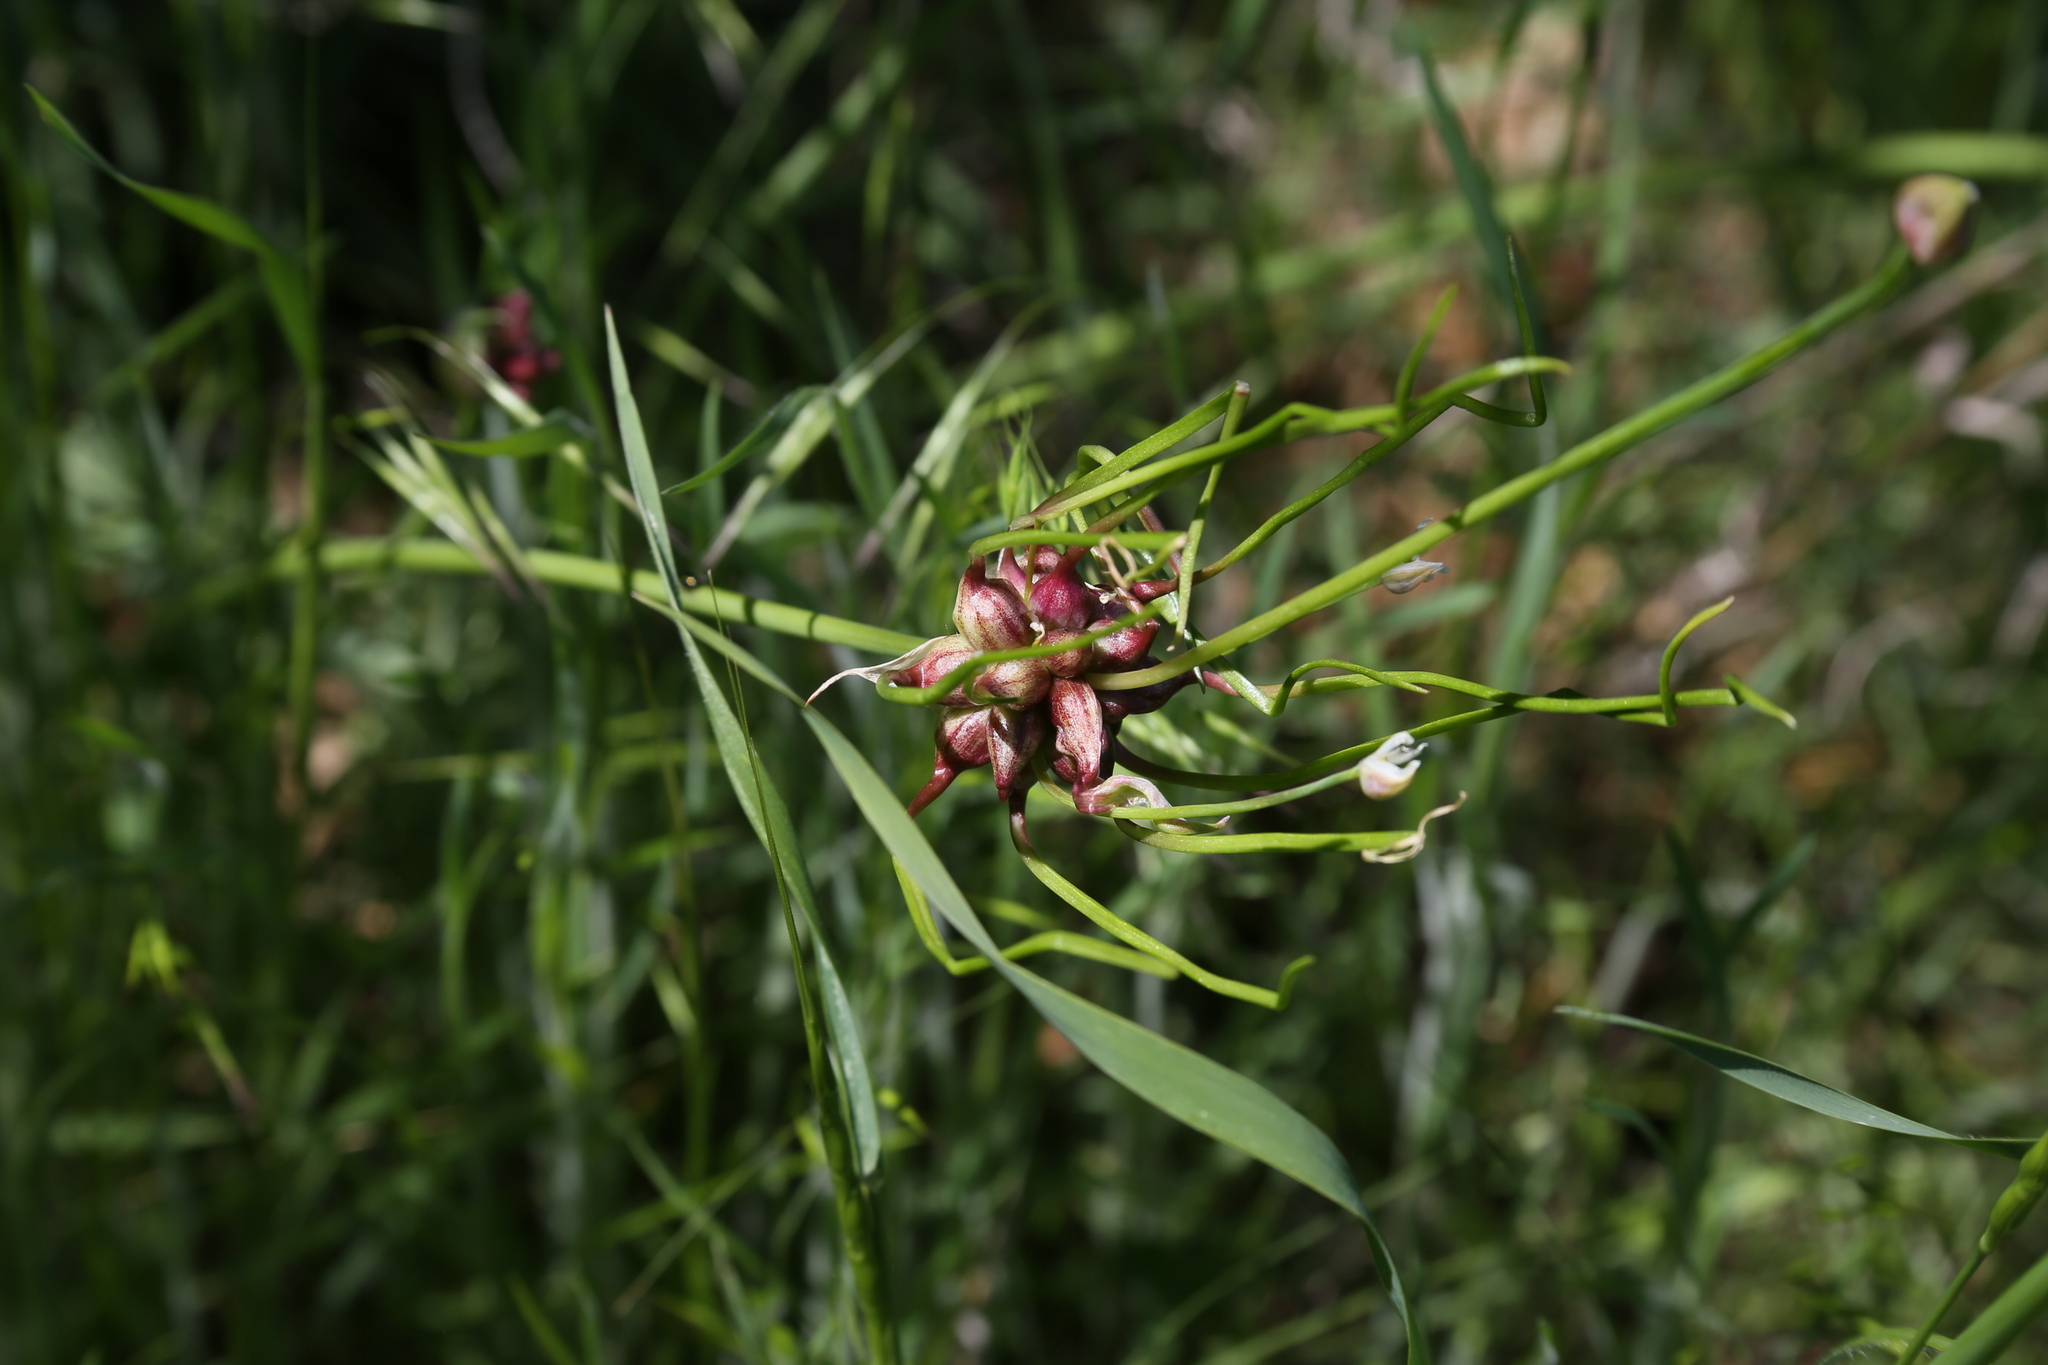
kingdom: Plantae
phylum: Tracheophyta
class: Liliopsida
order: Asparagales
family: Amaryllidaceae
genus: Allium
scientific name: Allium canadense
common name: Meadow garlic
